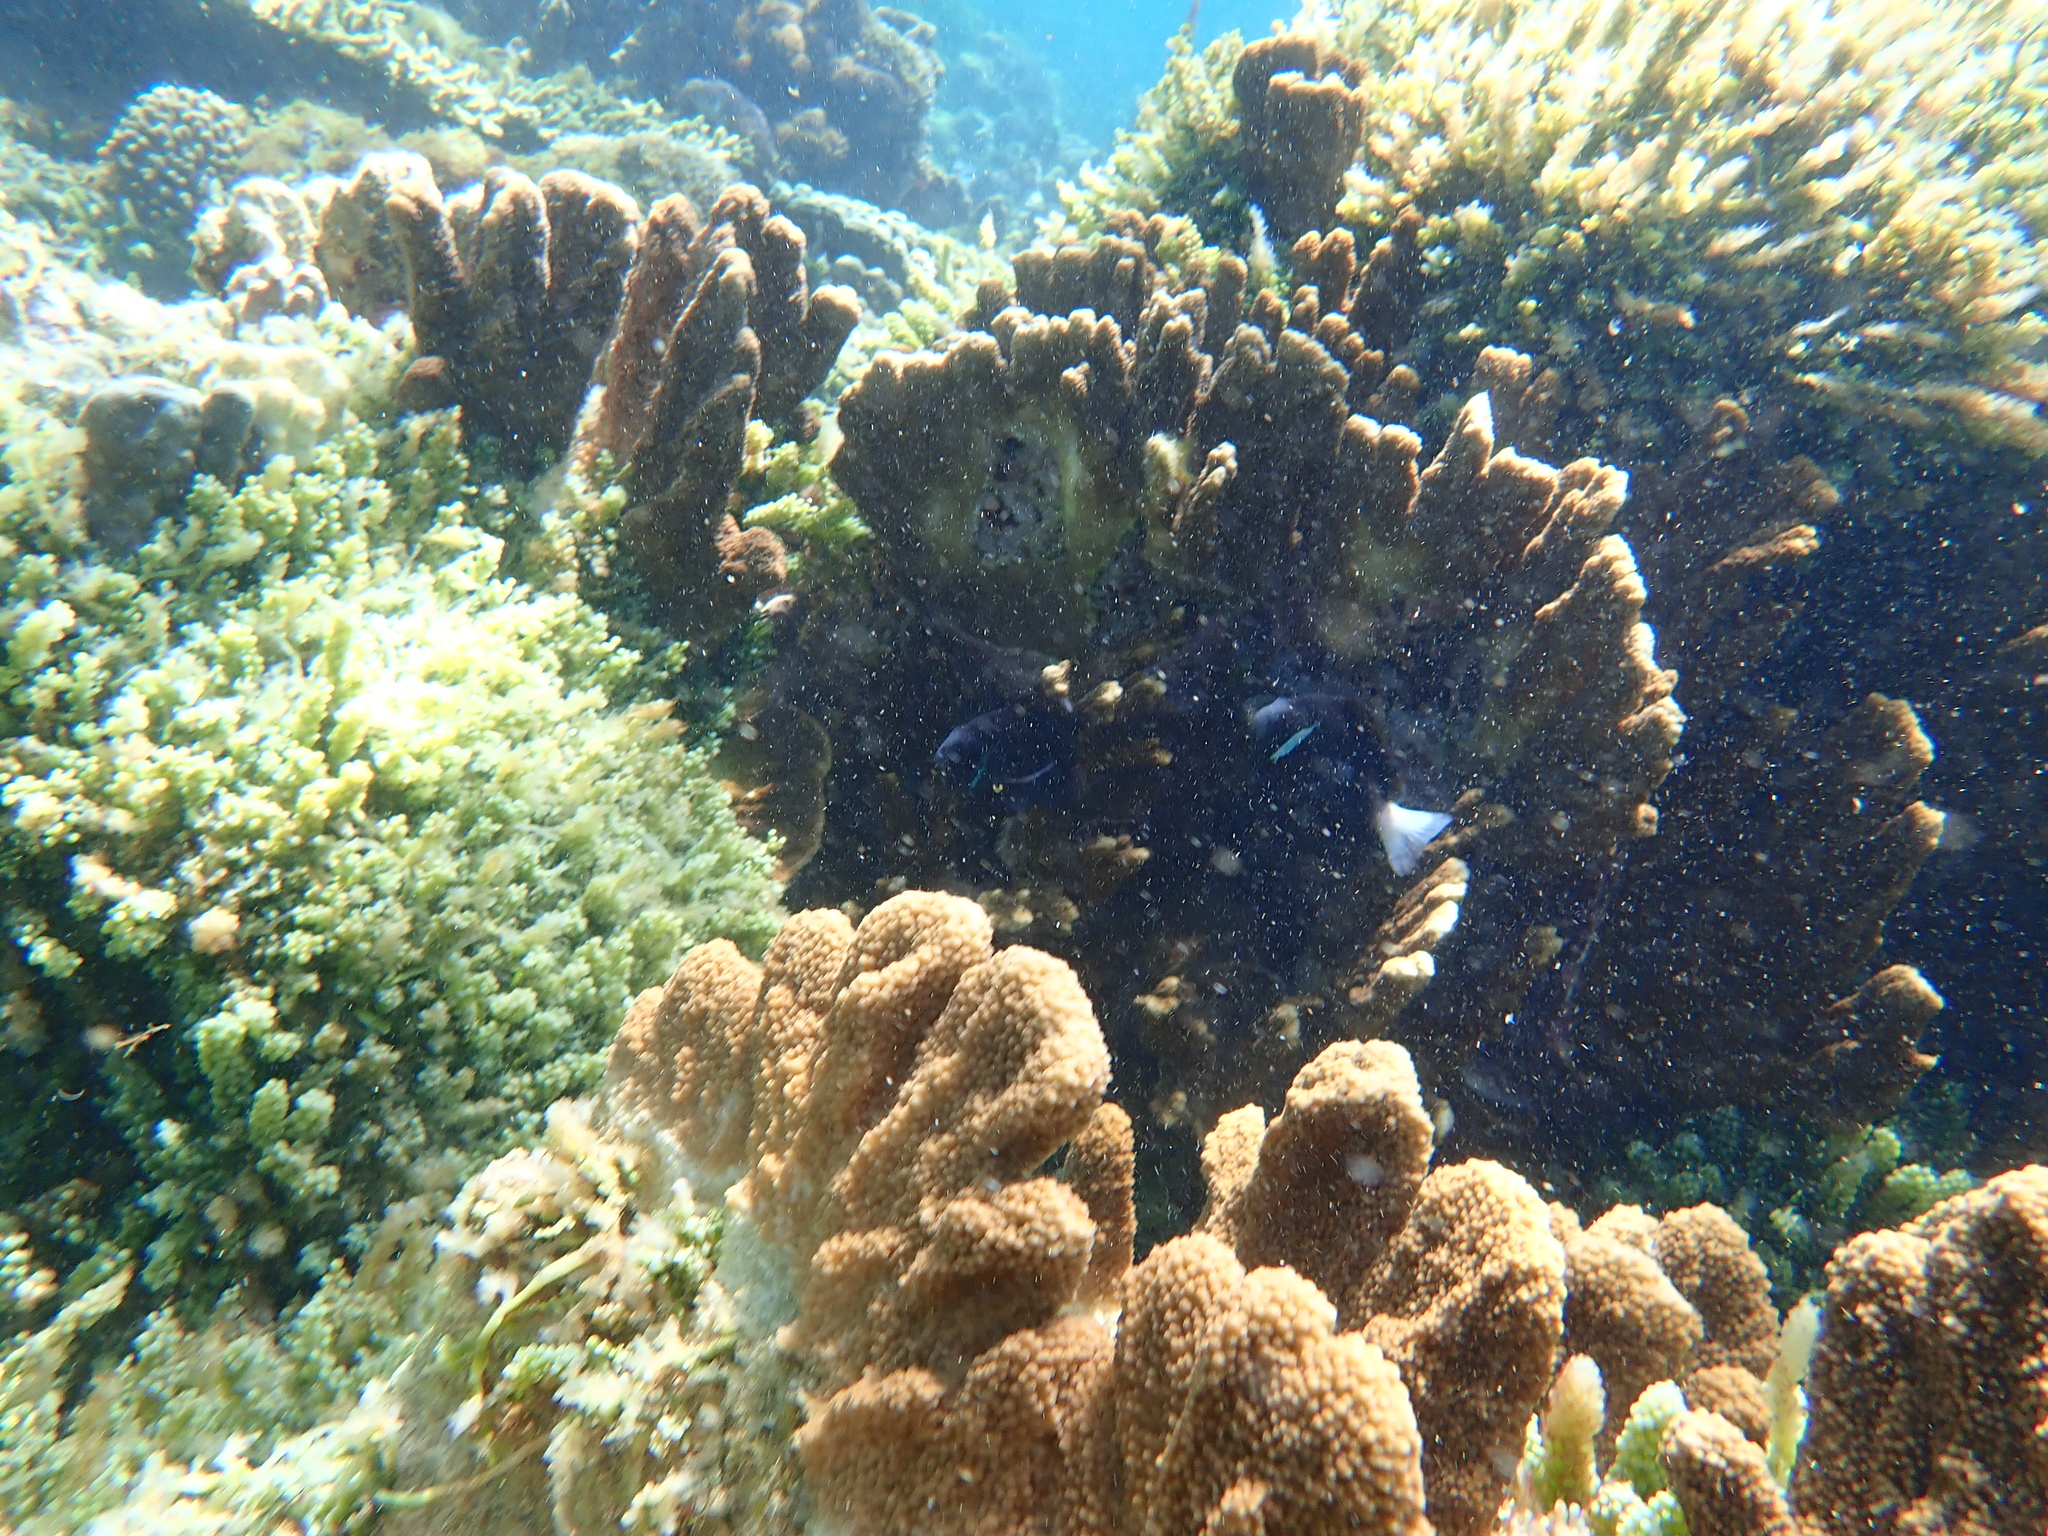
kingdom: Animalia
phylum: Chordata
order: Perciformes
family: Pomacentridae
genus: Amphiprion
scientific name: Amphiprion mccullochi
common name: Mcculloch's anemonefish
